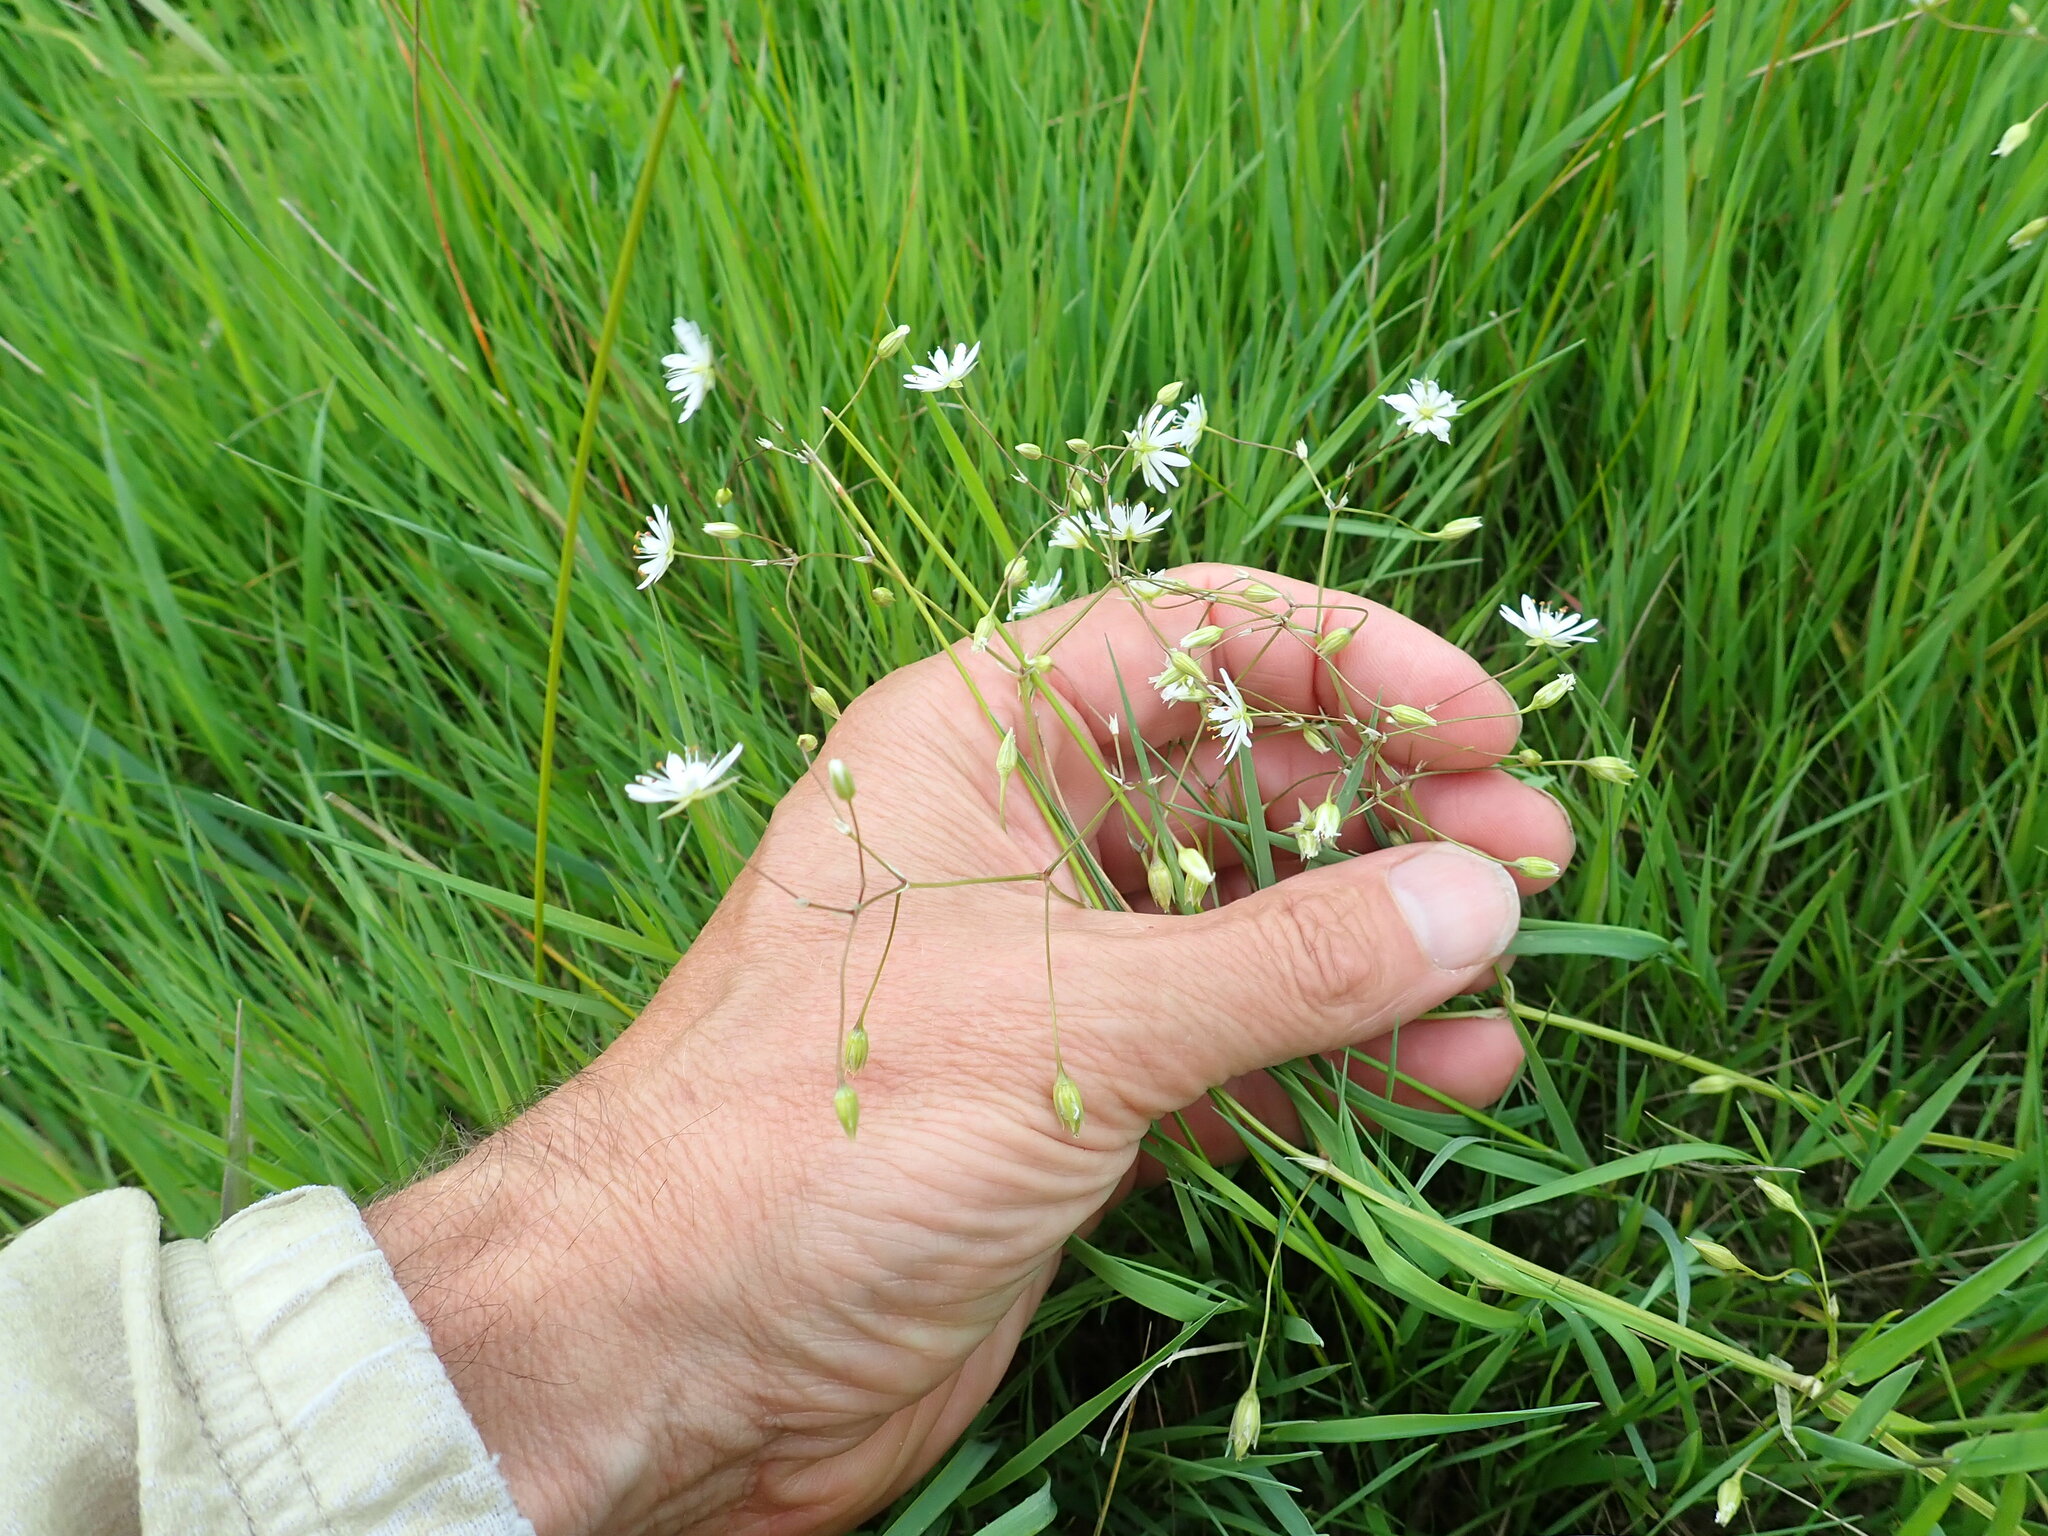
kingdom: Plantae
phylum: Tracheophyta
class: Magnoliopsida
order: Caryophyllales
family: Caryophyllaceae
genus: Stellaria
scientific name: Stellaria graminea
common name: Grass-like starwort
